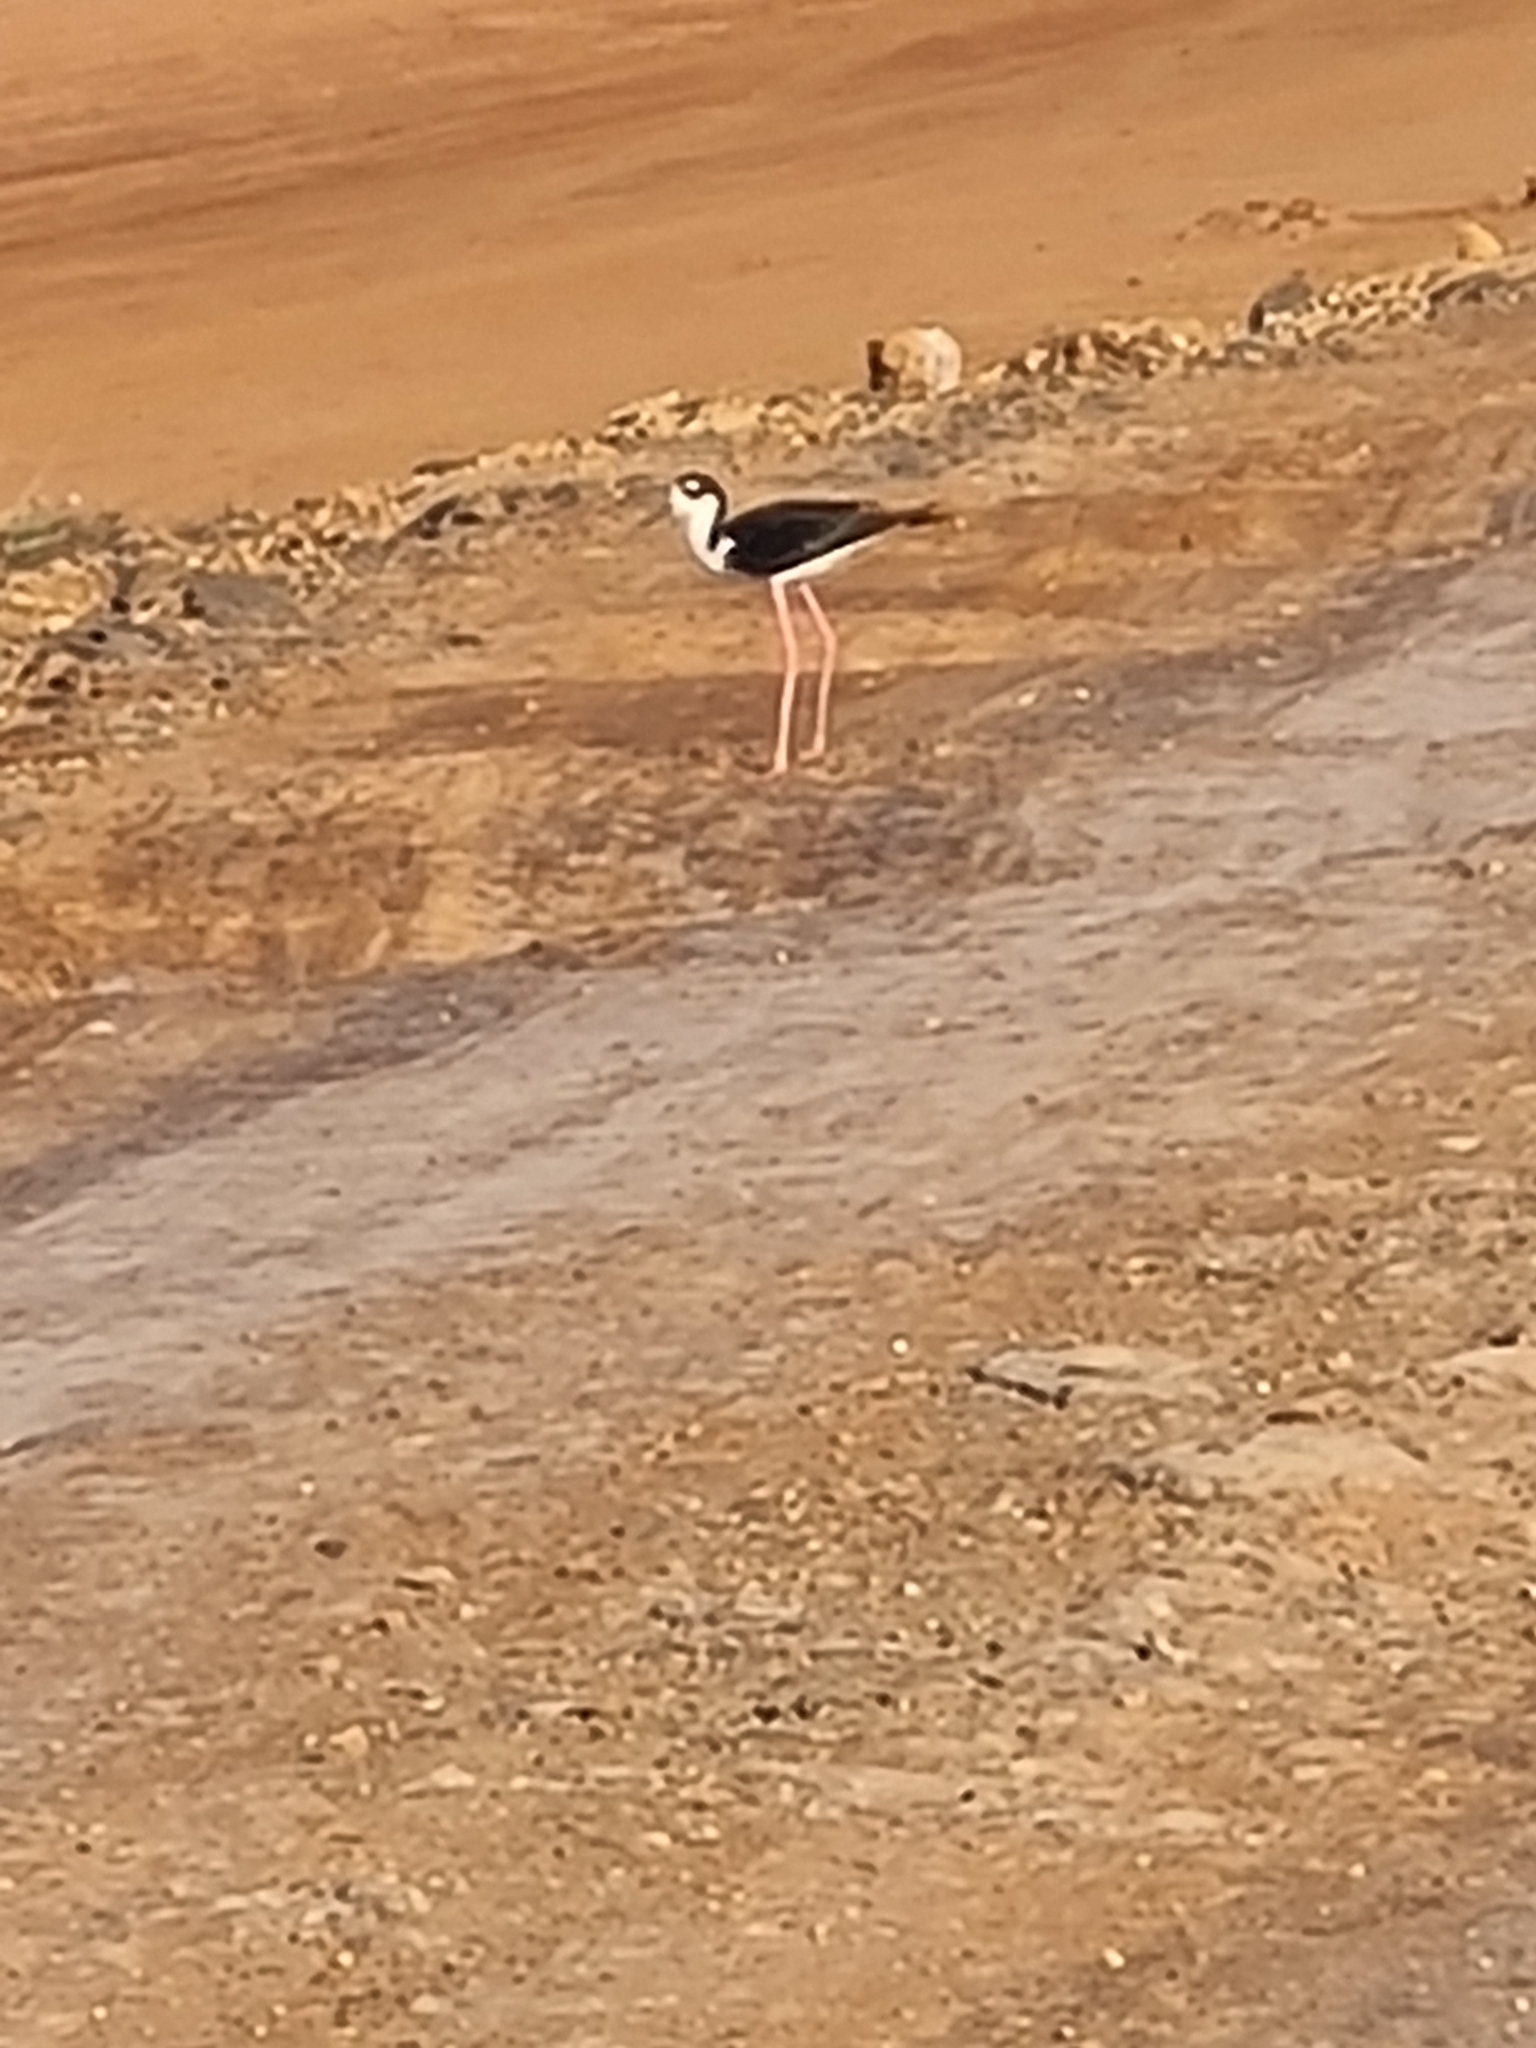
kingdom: Animalia
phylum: Chordata
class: Aves
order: Charadriiformes
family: Recurvirostridae
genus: Himantopus
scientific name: Himantopus mexicanus
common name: Black-necked stilt
